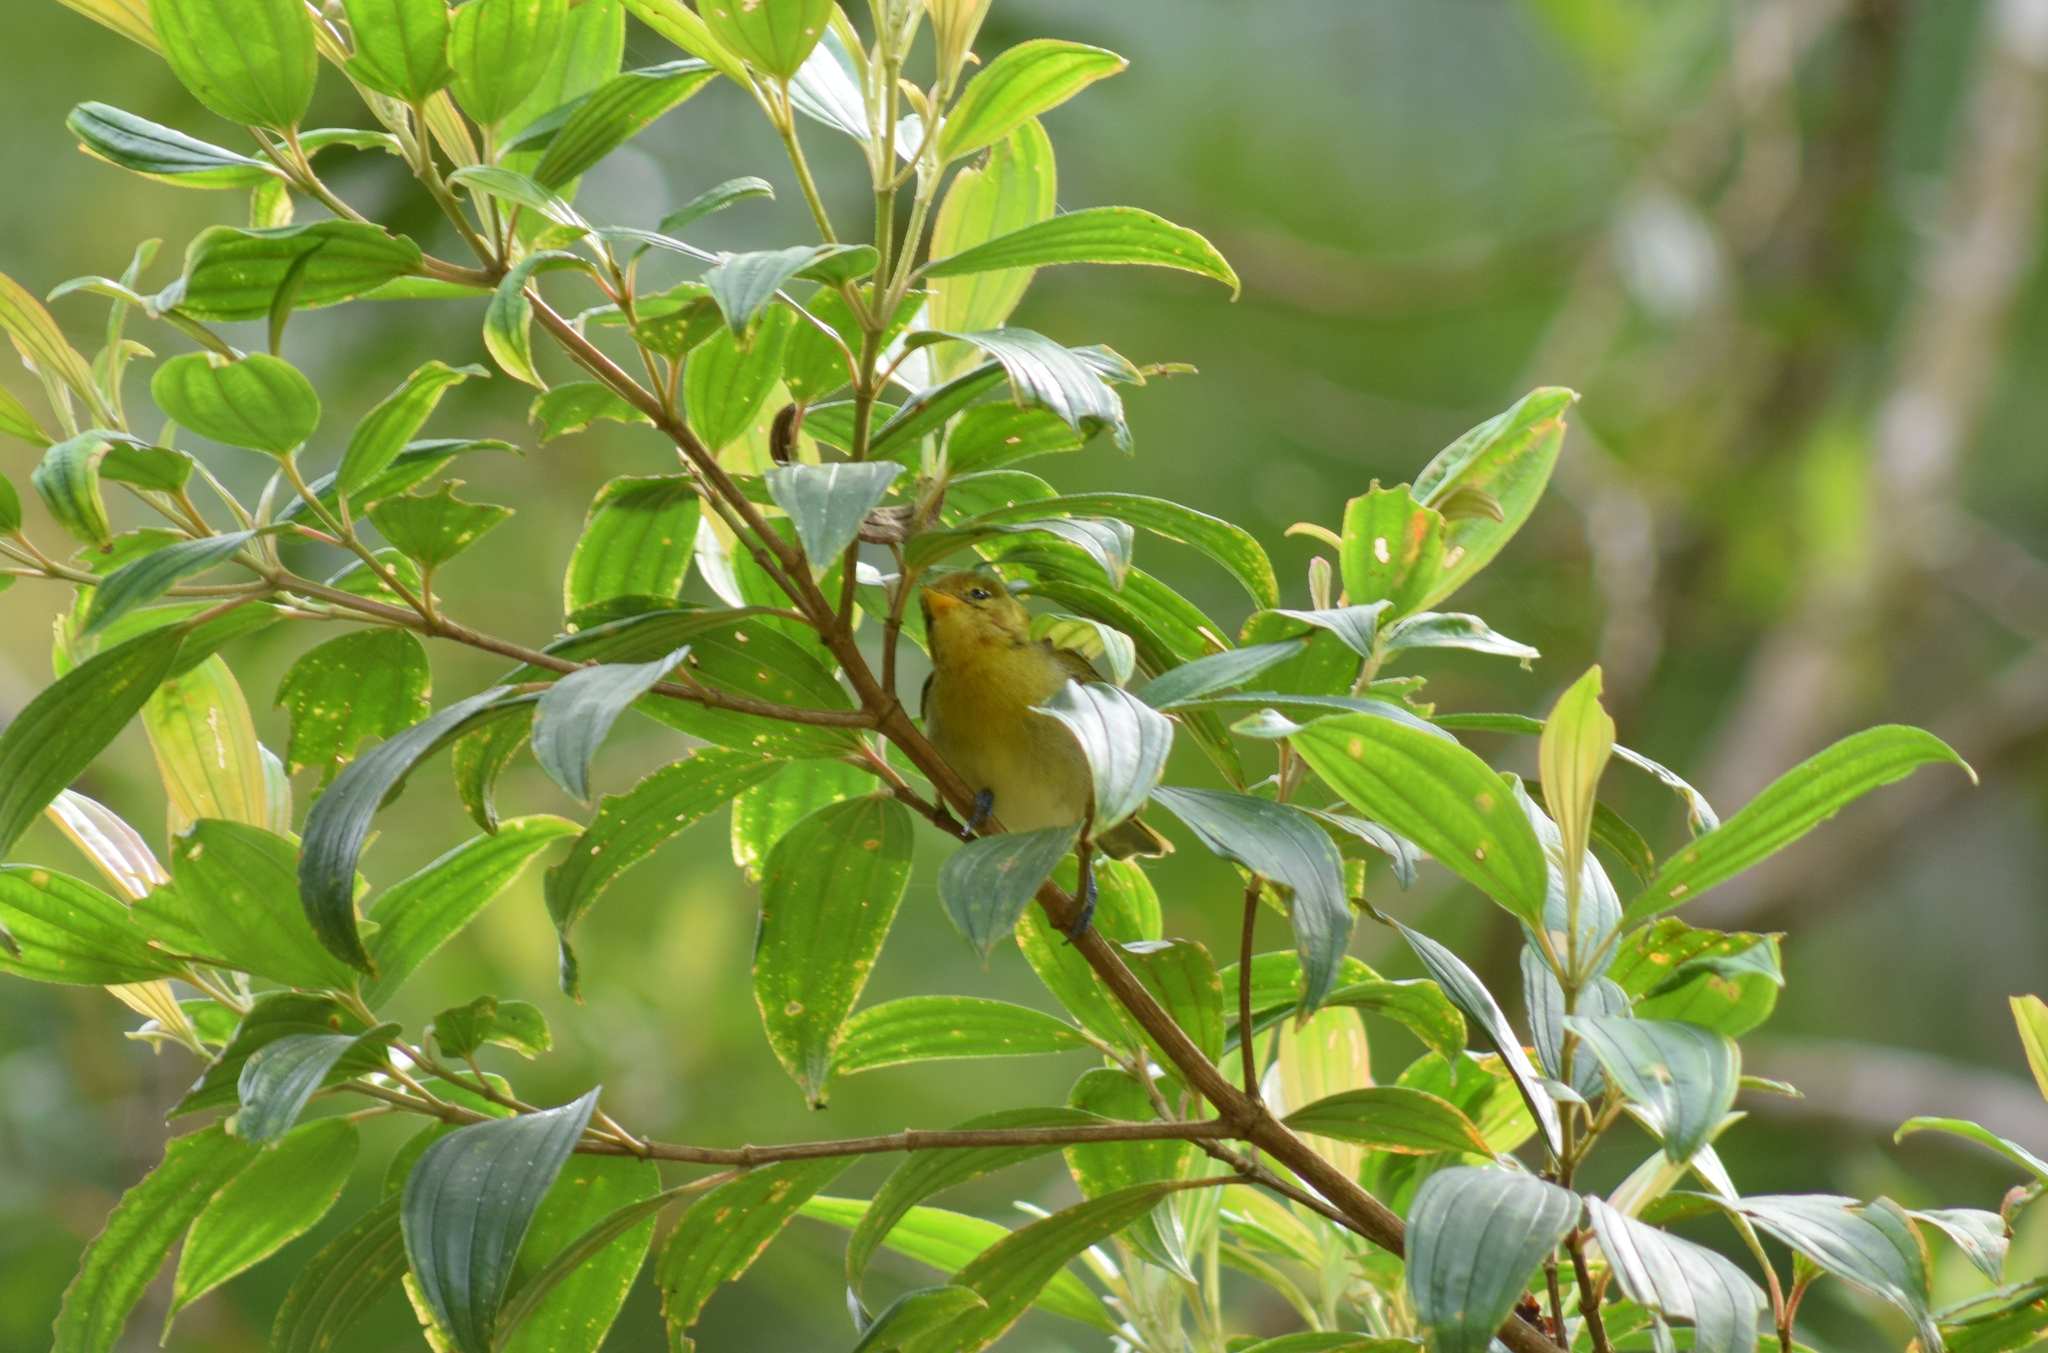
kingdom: Animalia
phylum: Chordata
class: Aves
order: Passeriformes
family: Thraupidae
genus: Hemithraupis
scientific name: Hemithraupis ruficapilla
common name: Rufous-headed tanager
